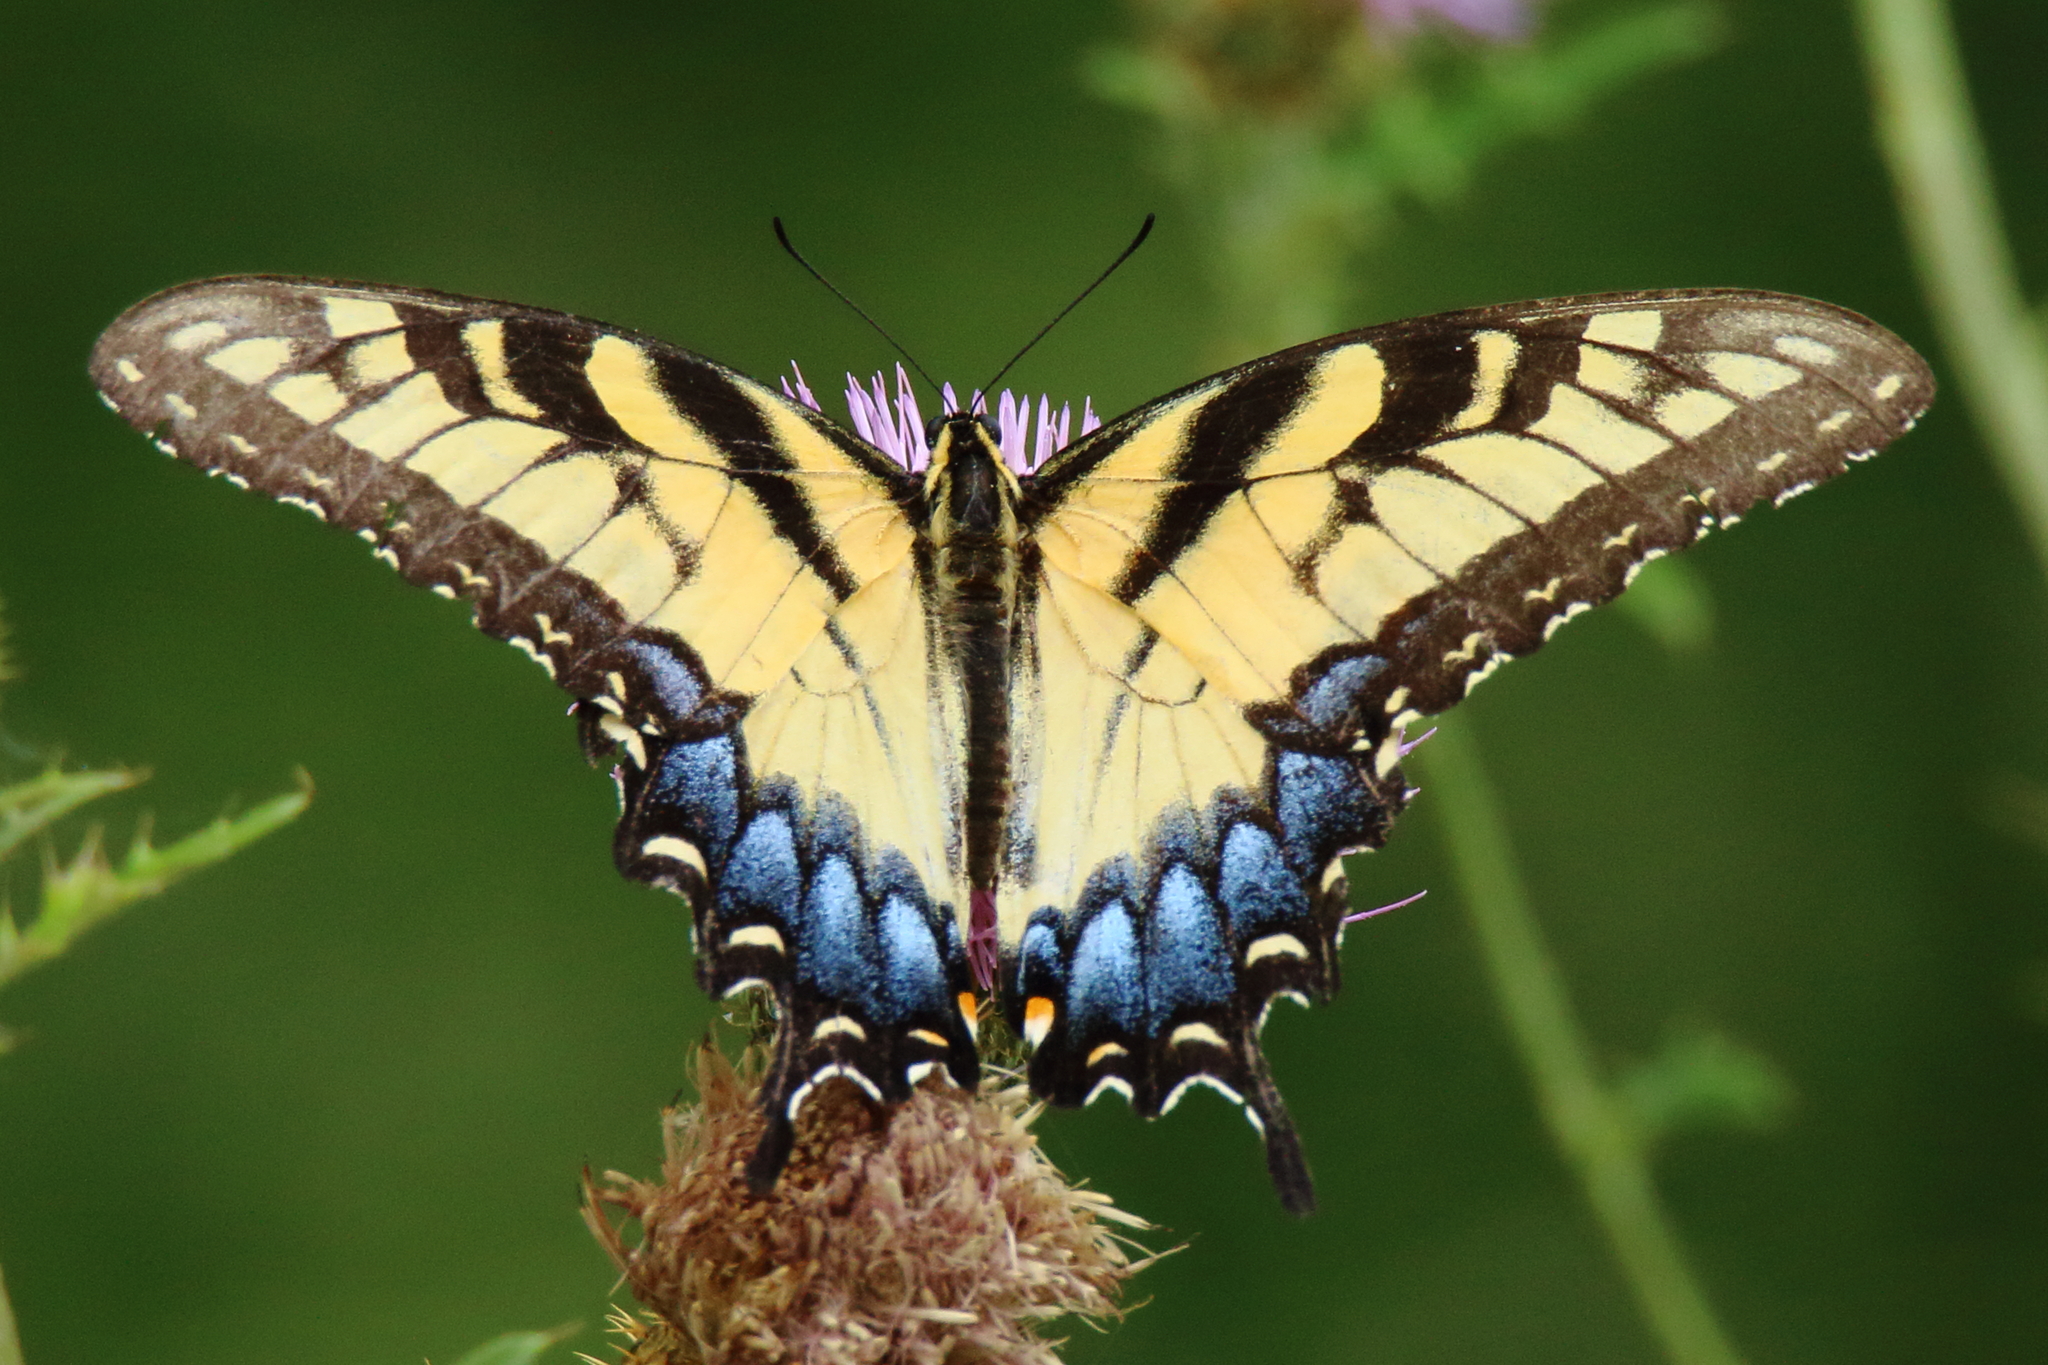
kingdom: Animalia
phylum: Arthropoda
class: Insecta
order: Lepidoptera
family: Papilionidae
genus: Papilio
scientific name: Papilio glaucus
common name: Tiger swallowtail
